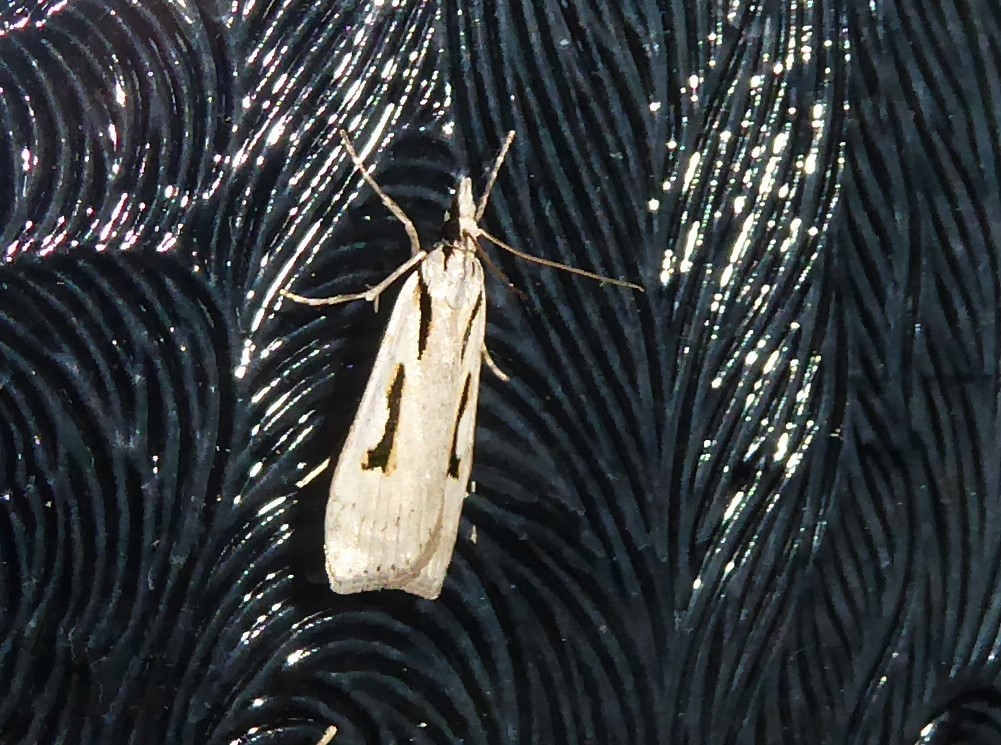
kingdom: Animalia
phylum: Arthropoda
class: Insecta
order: Lepidoptera
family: Crambidae
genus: Scoparia
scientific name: Scoparia rotuellus
